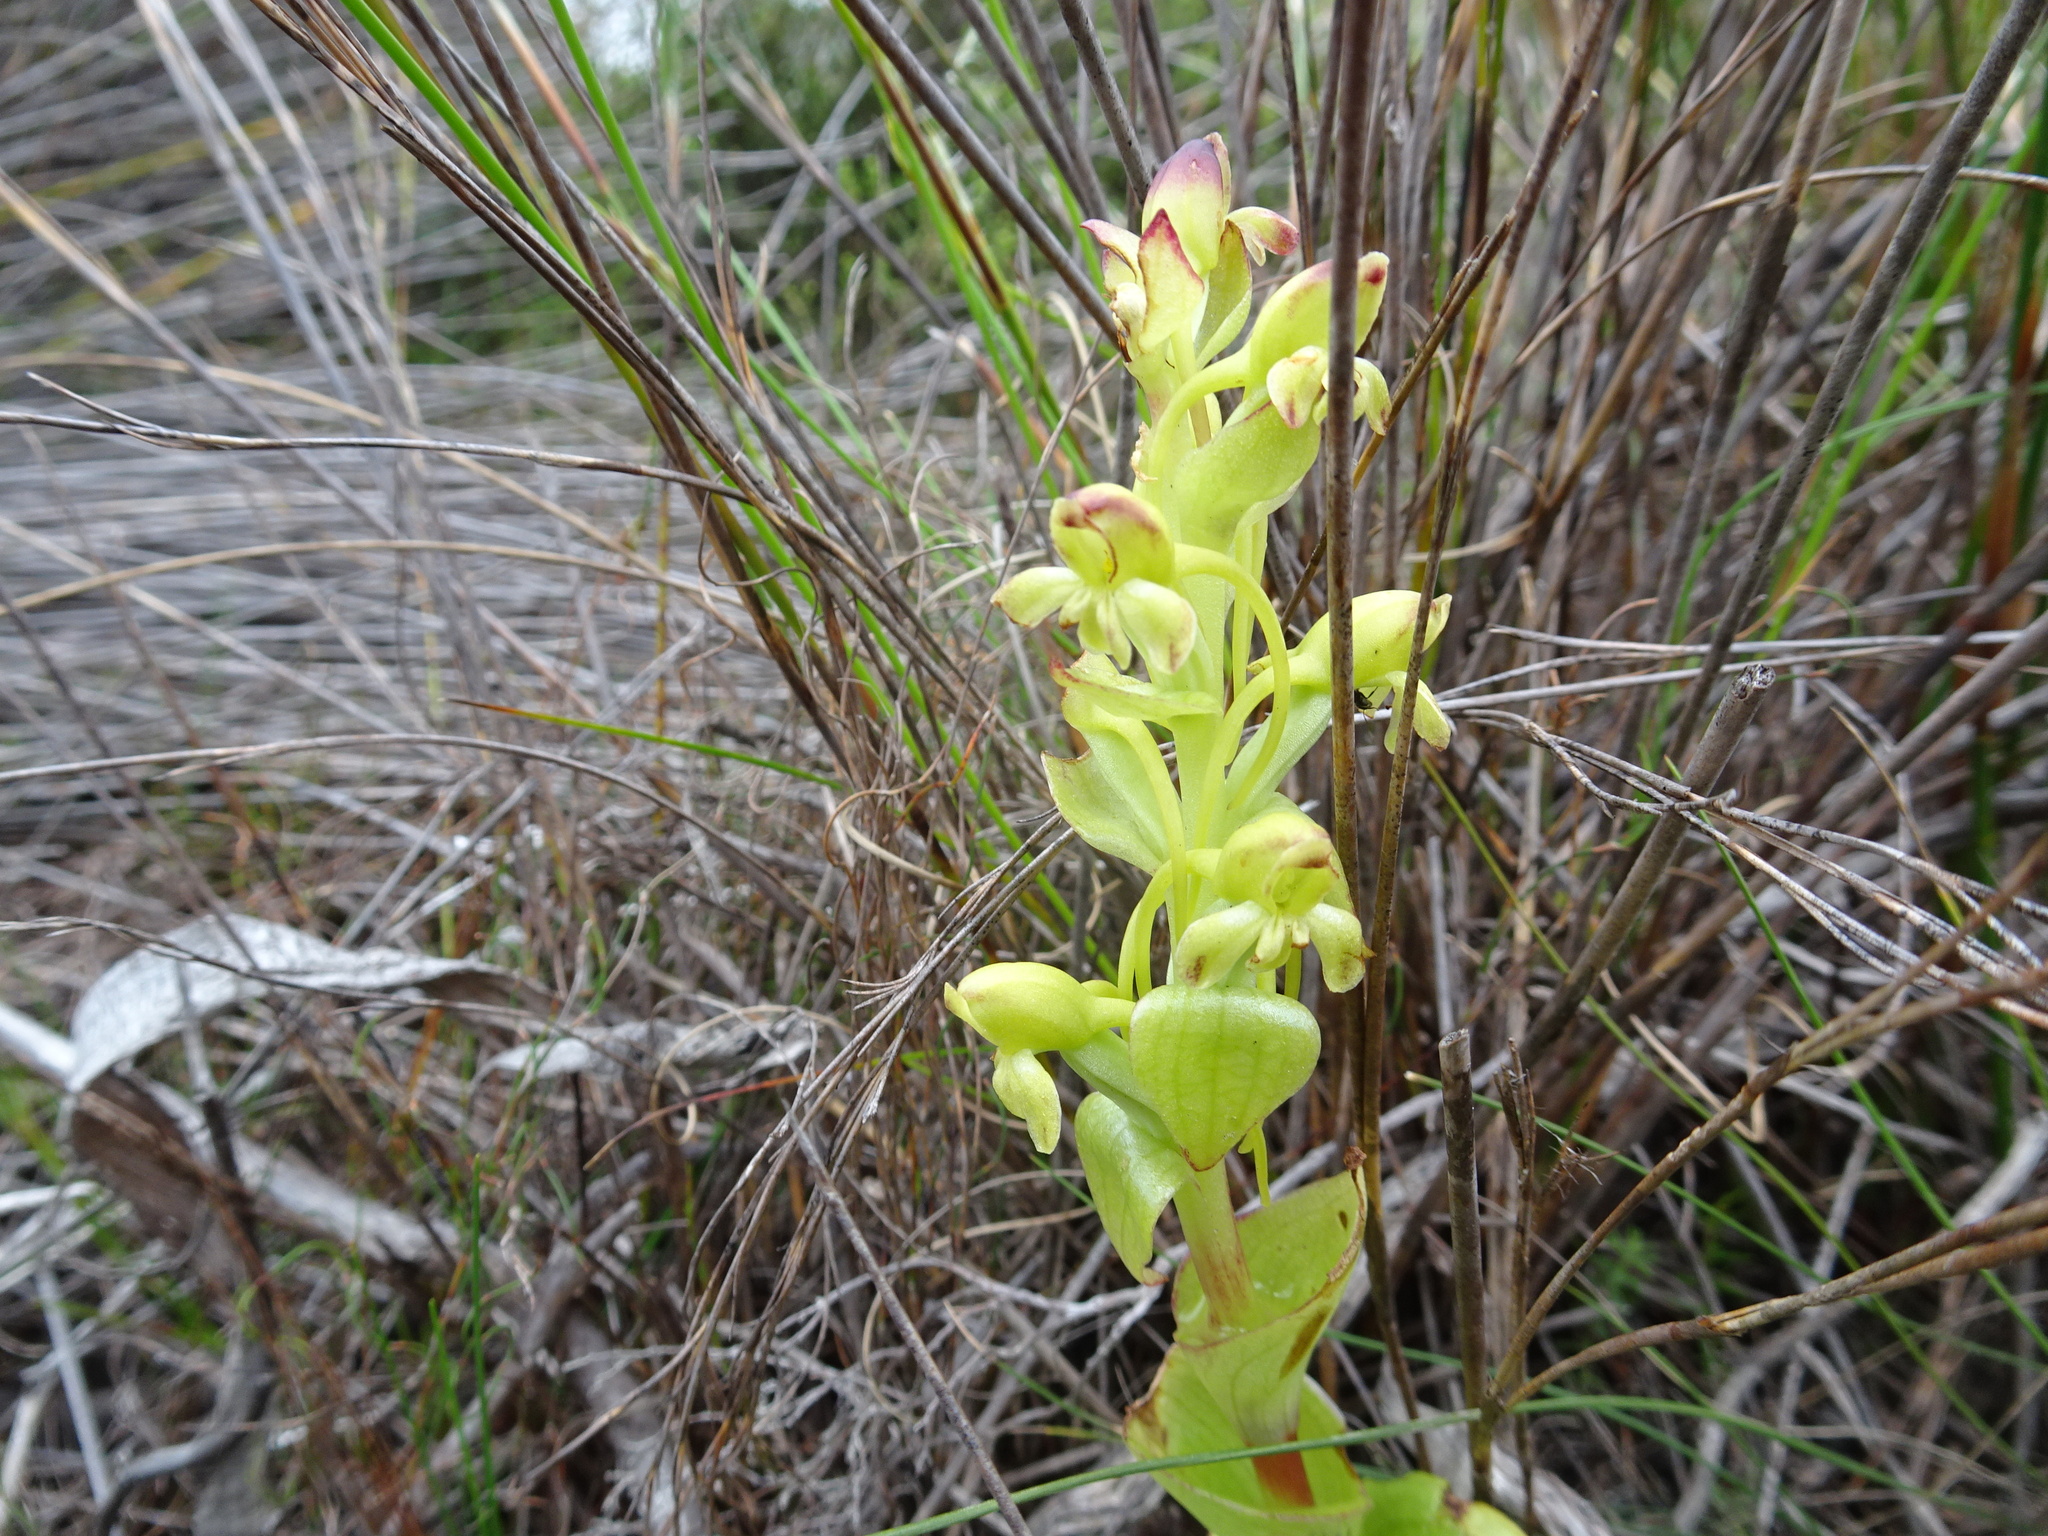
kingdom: Plantae
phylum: Tracheophyta
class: Liliopsida
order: Asparagales
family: Orchidaceae
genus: Satyrium
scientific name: Satyrium odorum
